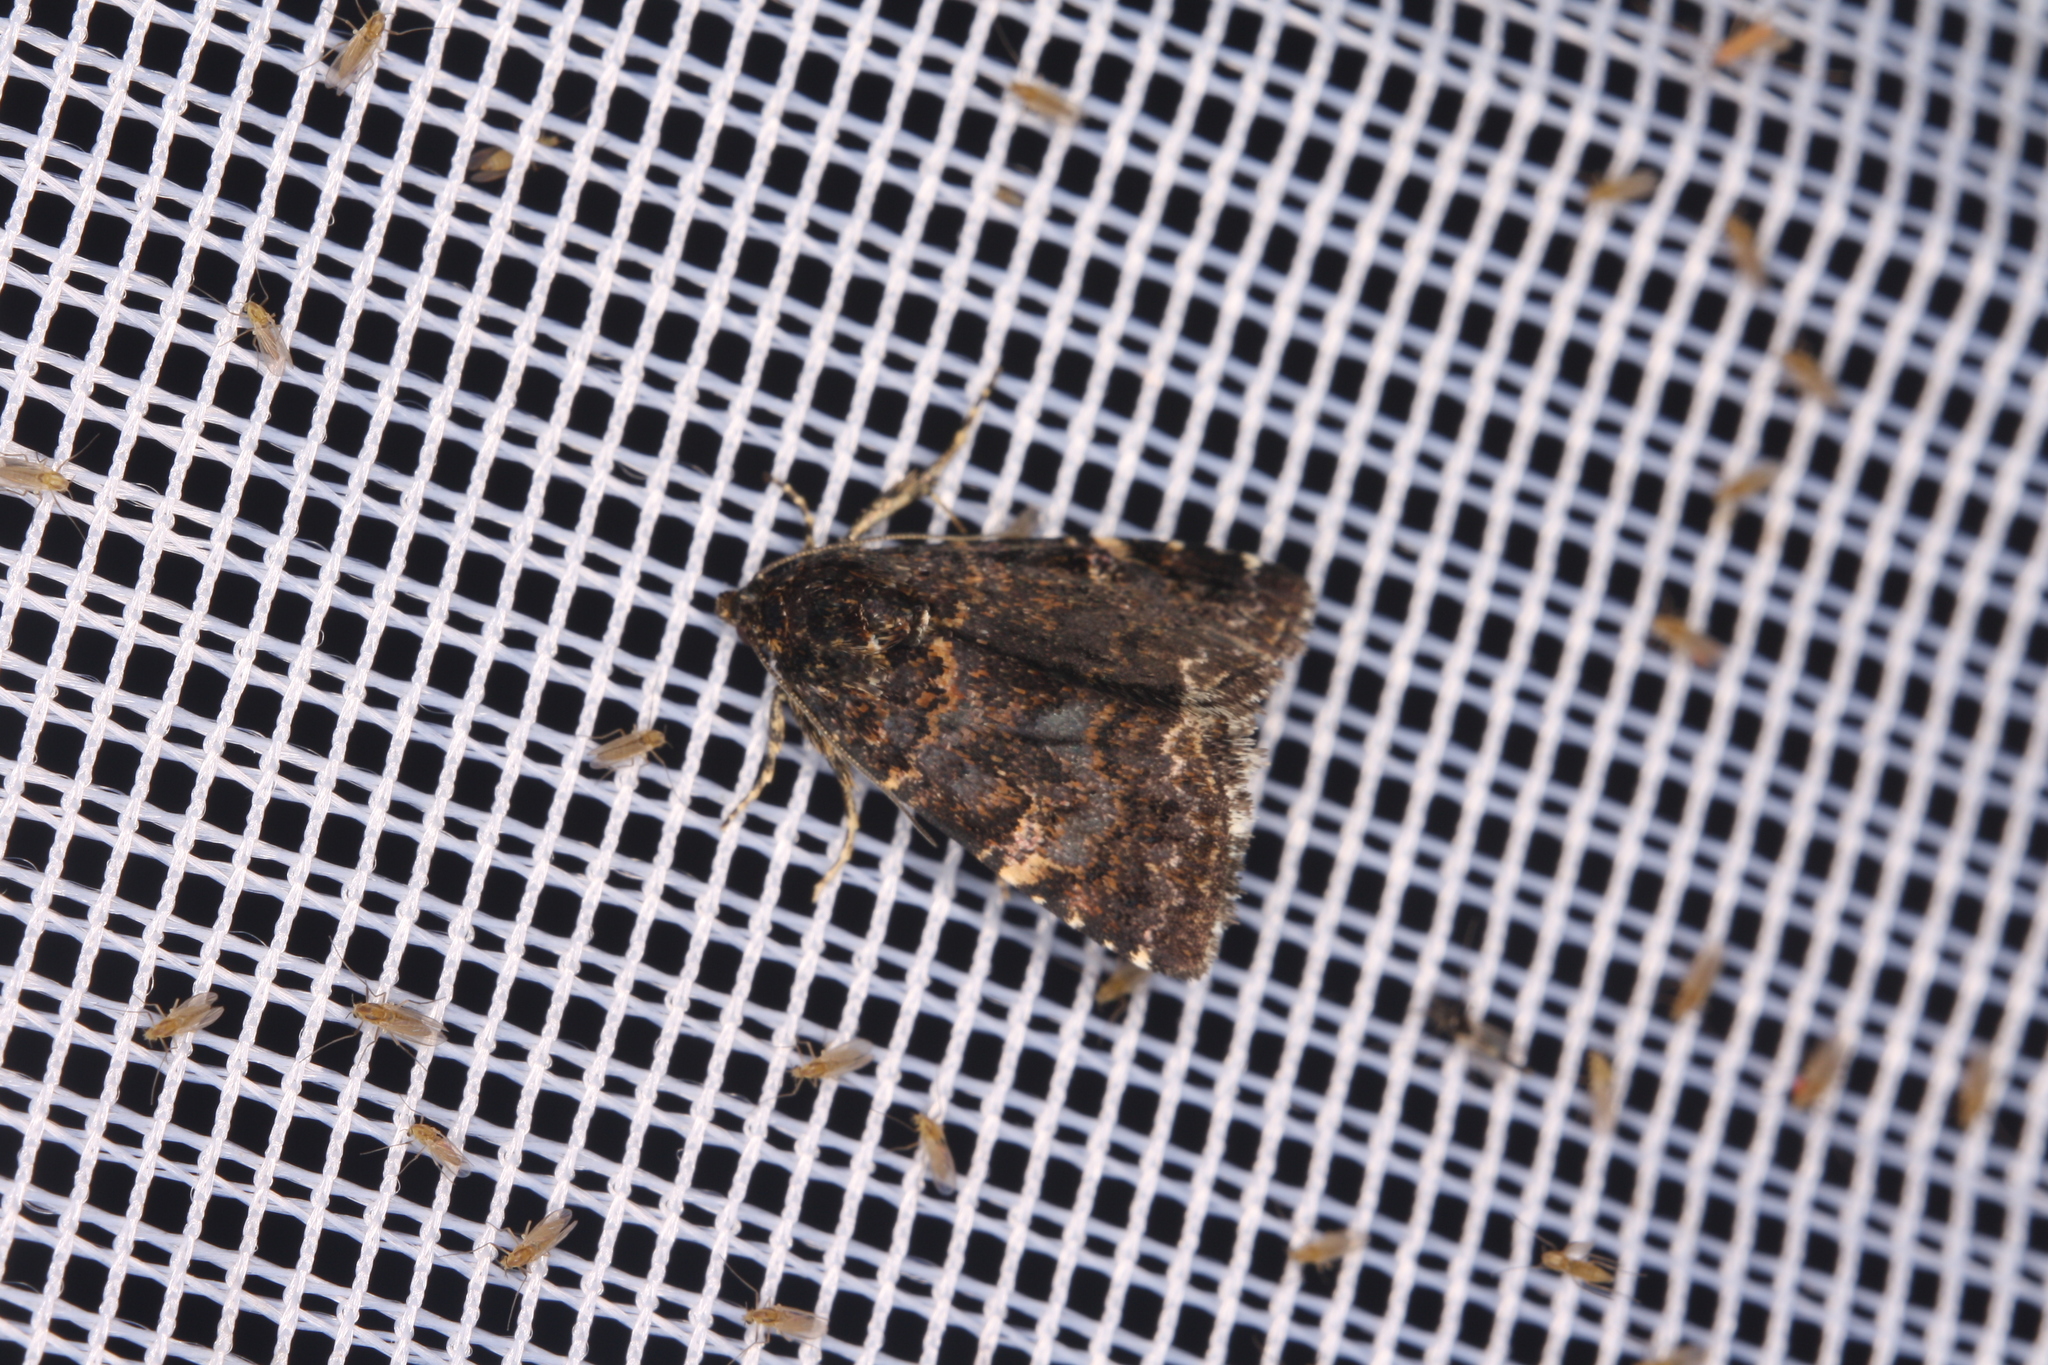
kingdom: Animalia
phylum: Arthropoda
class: Insecta
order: Lepidoptera
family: Noctuidae
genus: Acontiola
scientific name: Acontiola moldavicola
